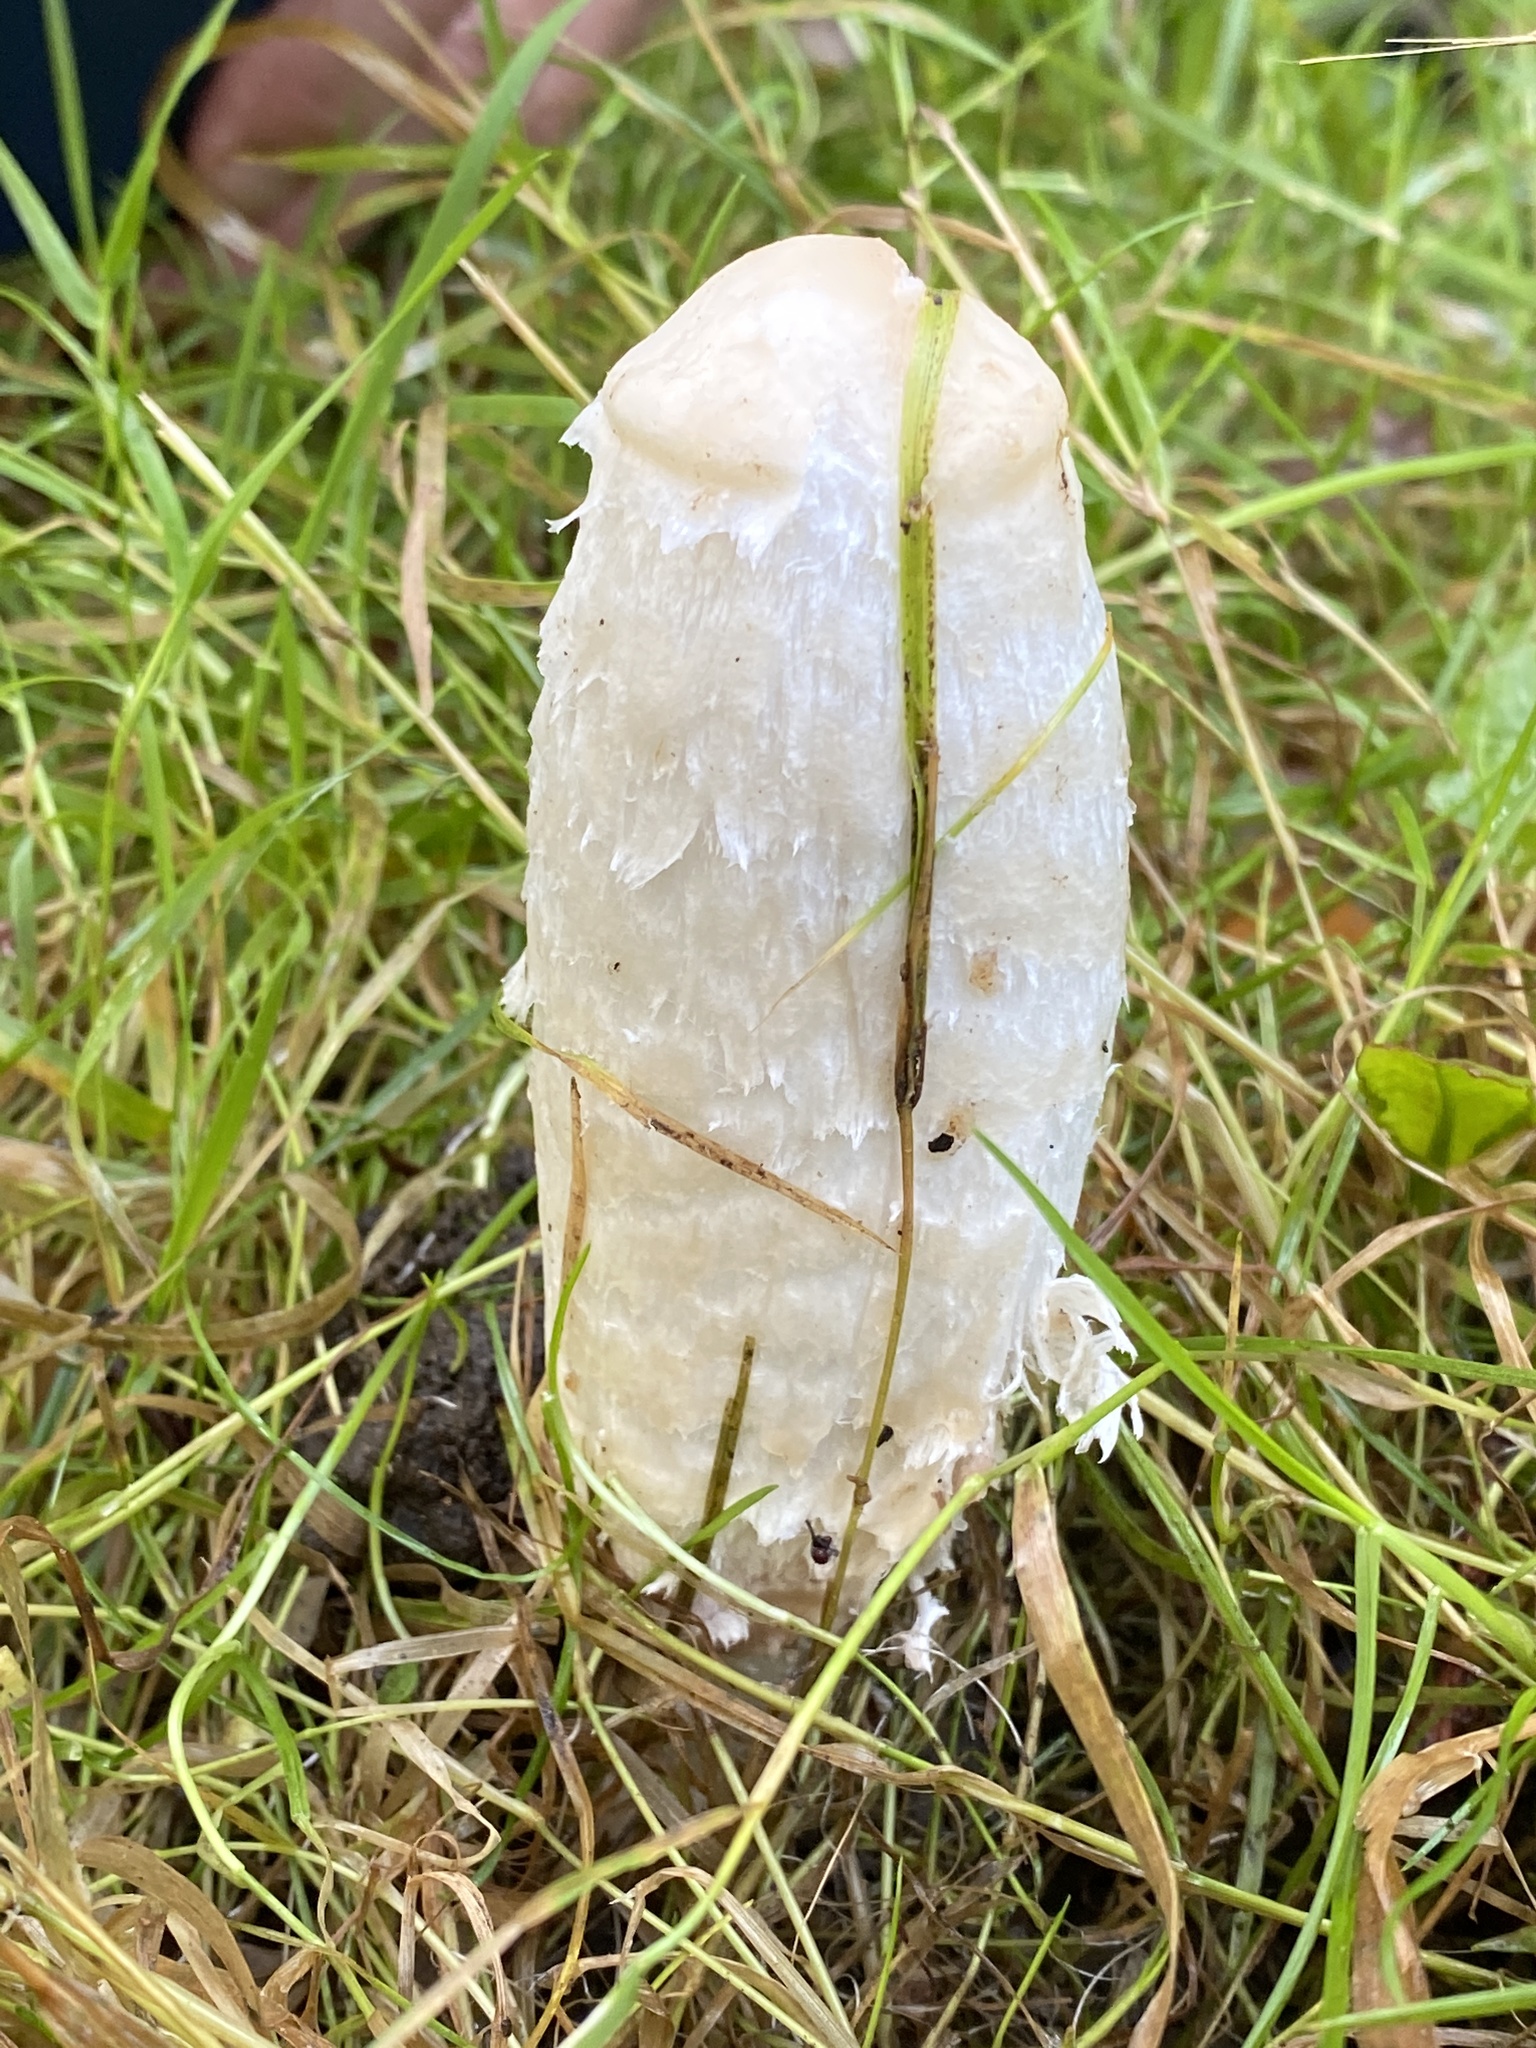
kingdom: Fungi
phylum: Basidiomycota
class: Agaricomycetes
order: Agaricales
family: Agaricaceae
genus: Coprinus
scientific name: Coprinus comatus
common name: Lawyer's wig
